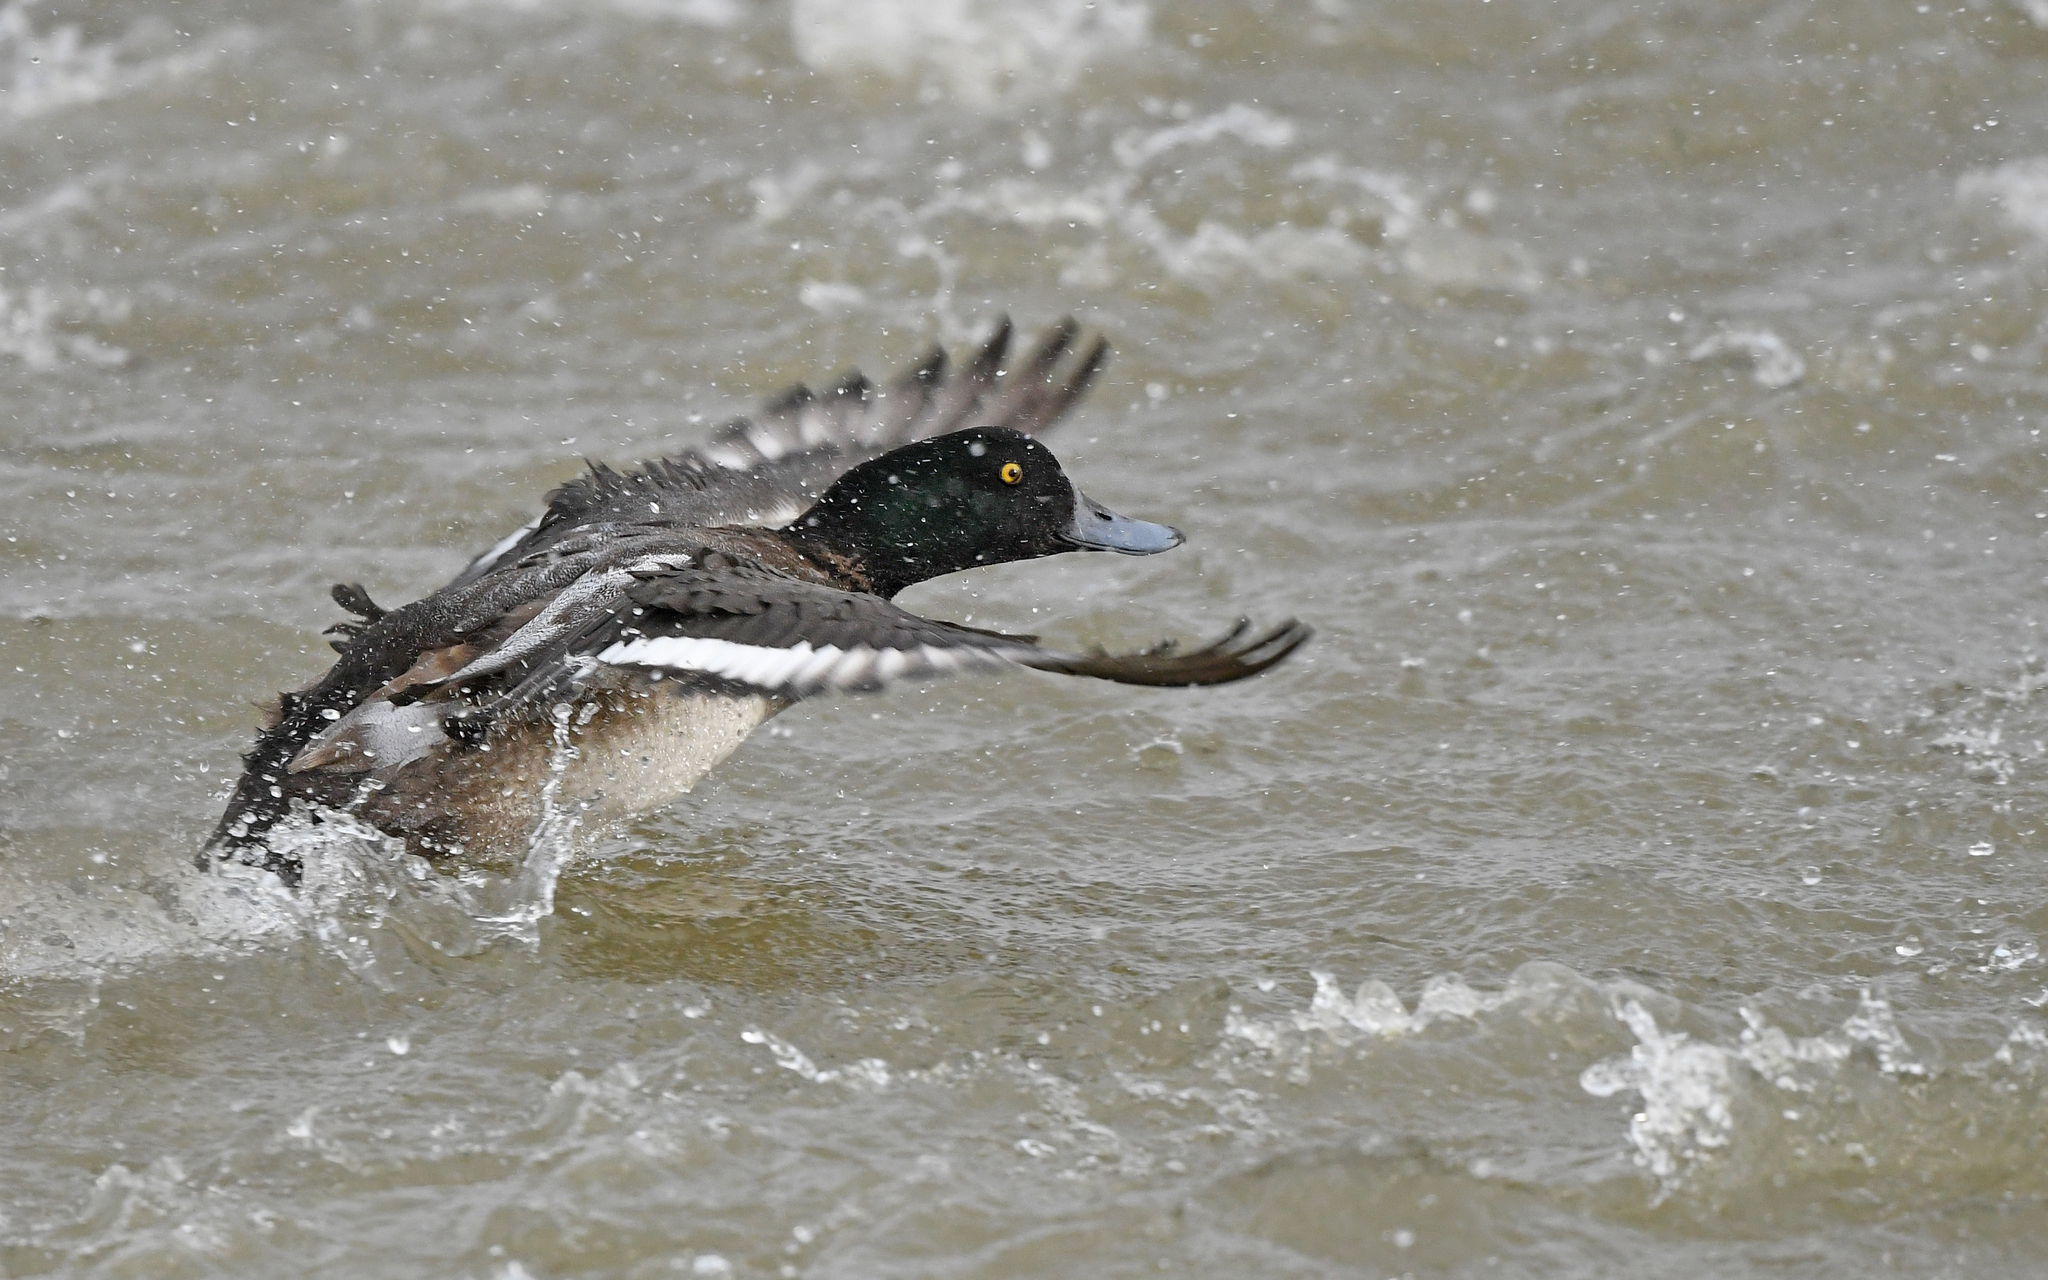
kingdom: Animalia
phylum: Chordata
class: Aves
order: Anseriformes
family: Anatidae
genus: Aythya
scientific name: Aythya marila
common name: Greater scaup
